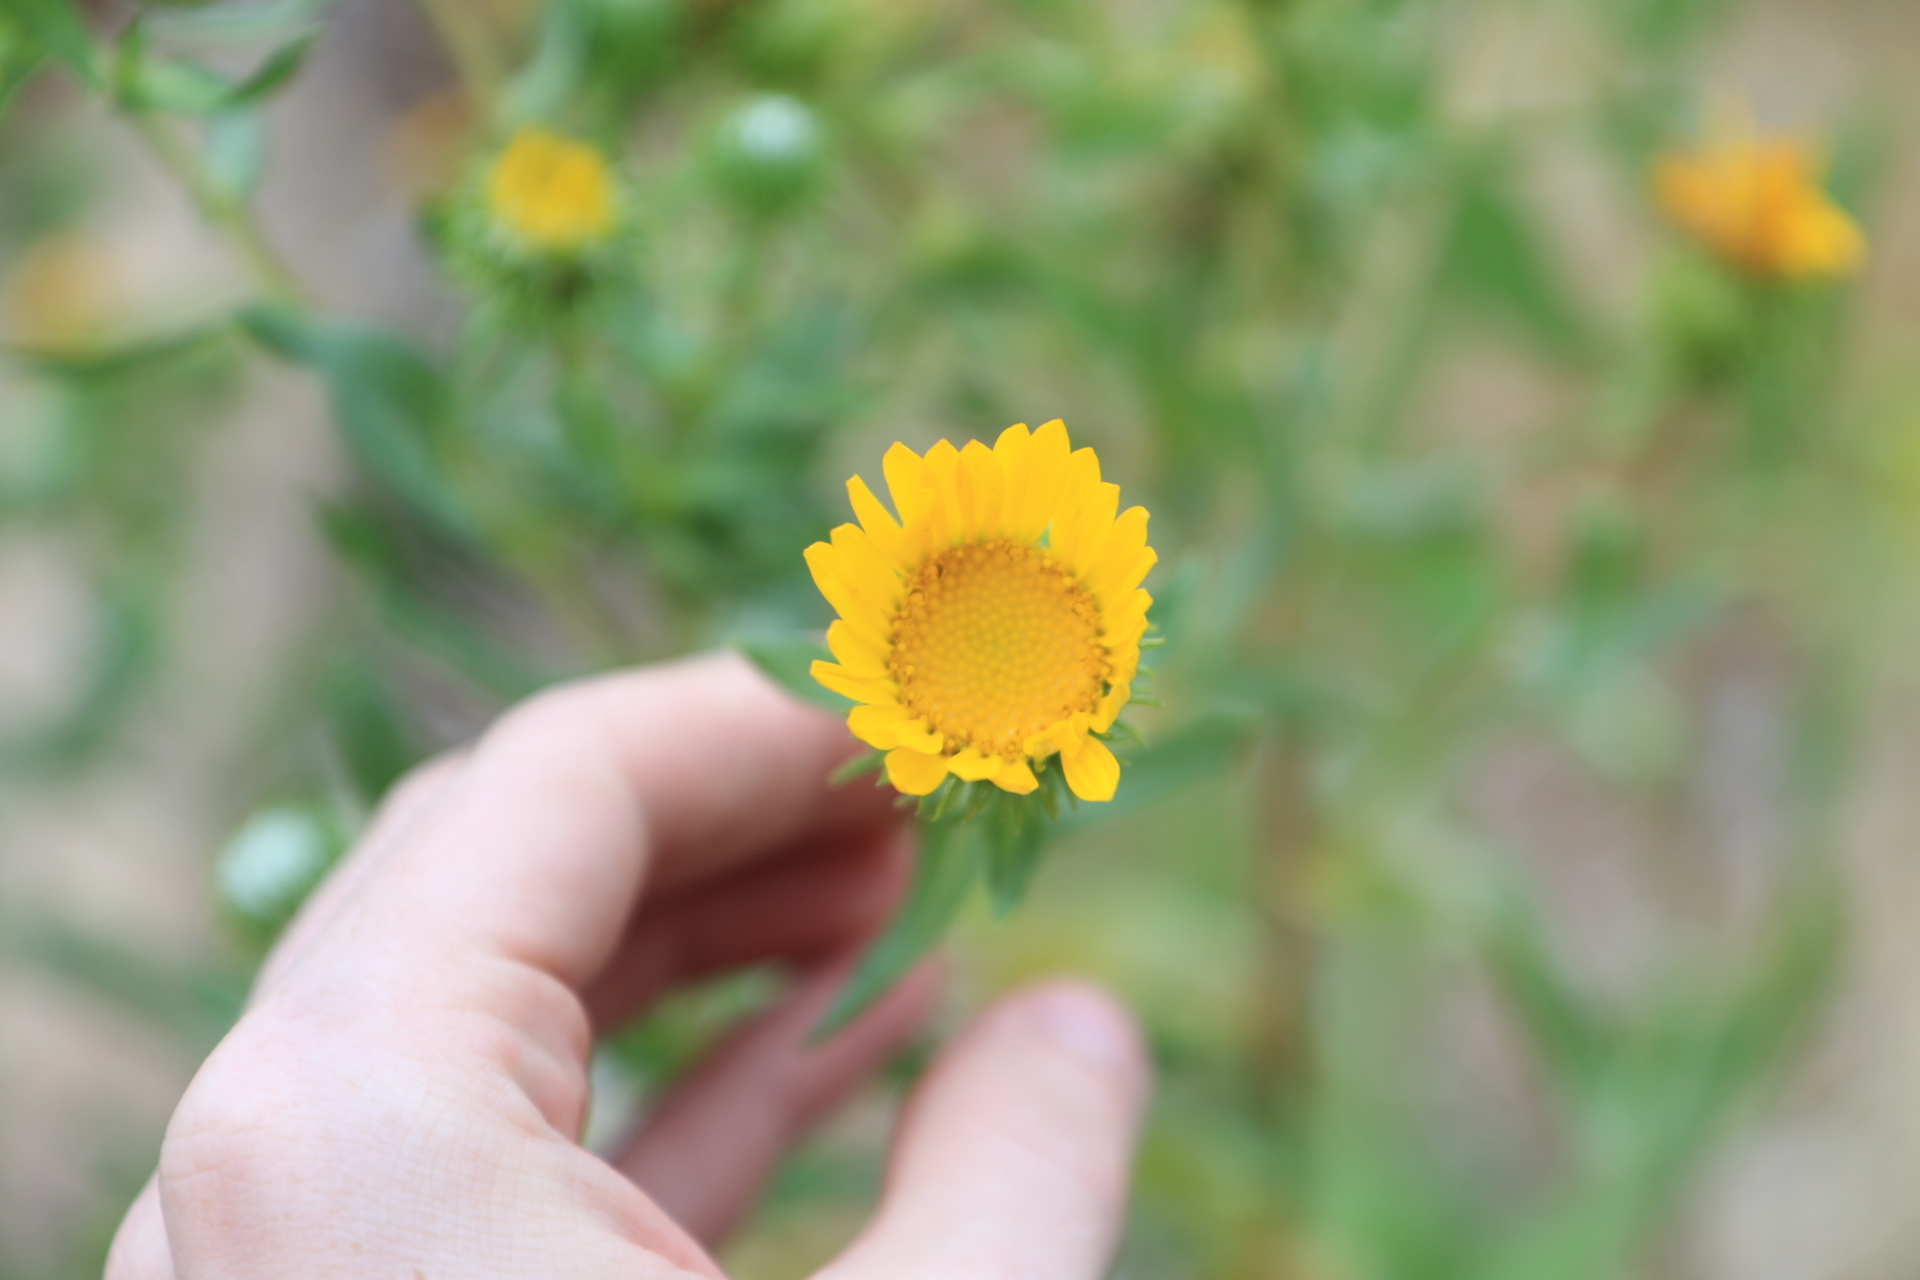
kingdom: Plantae
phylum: Tracheophyta
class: Magnoliopsida
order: Asterales
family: Asteraceae
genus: Grindelia
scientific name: Grindelia integrifolia
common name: Puget sound gumweed
